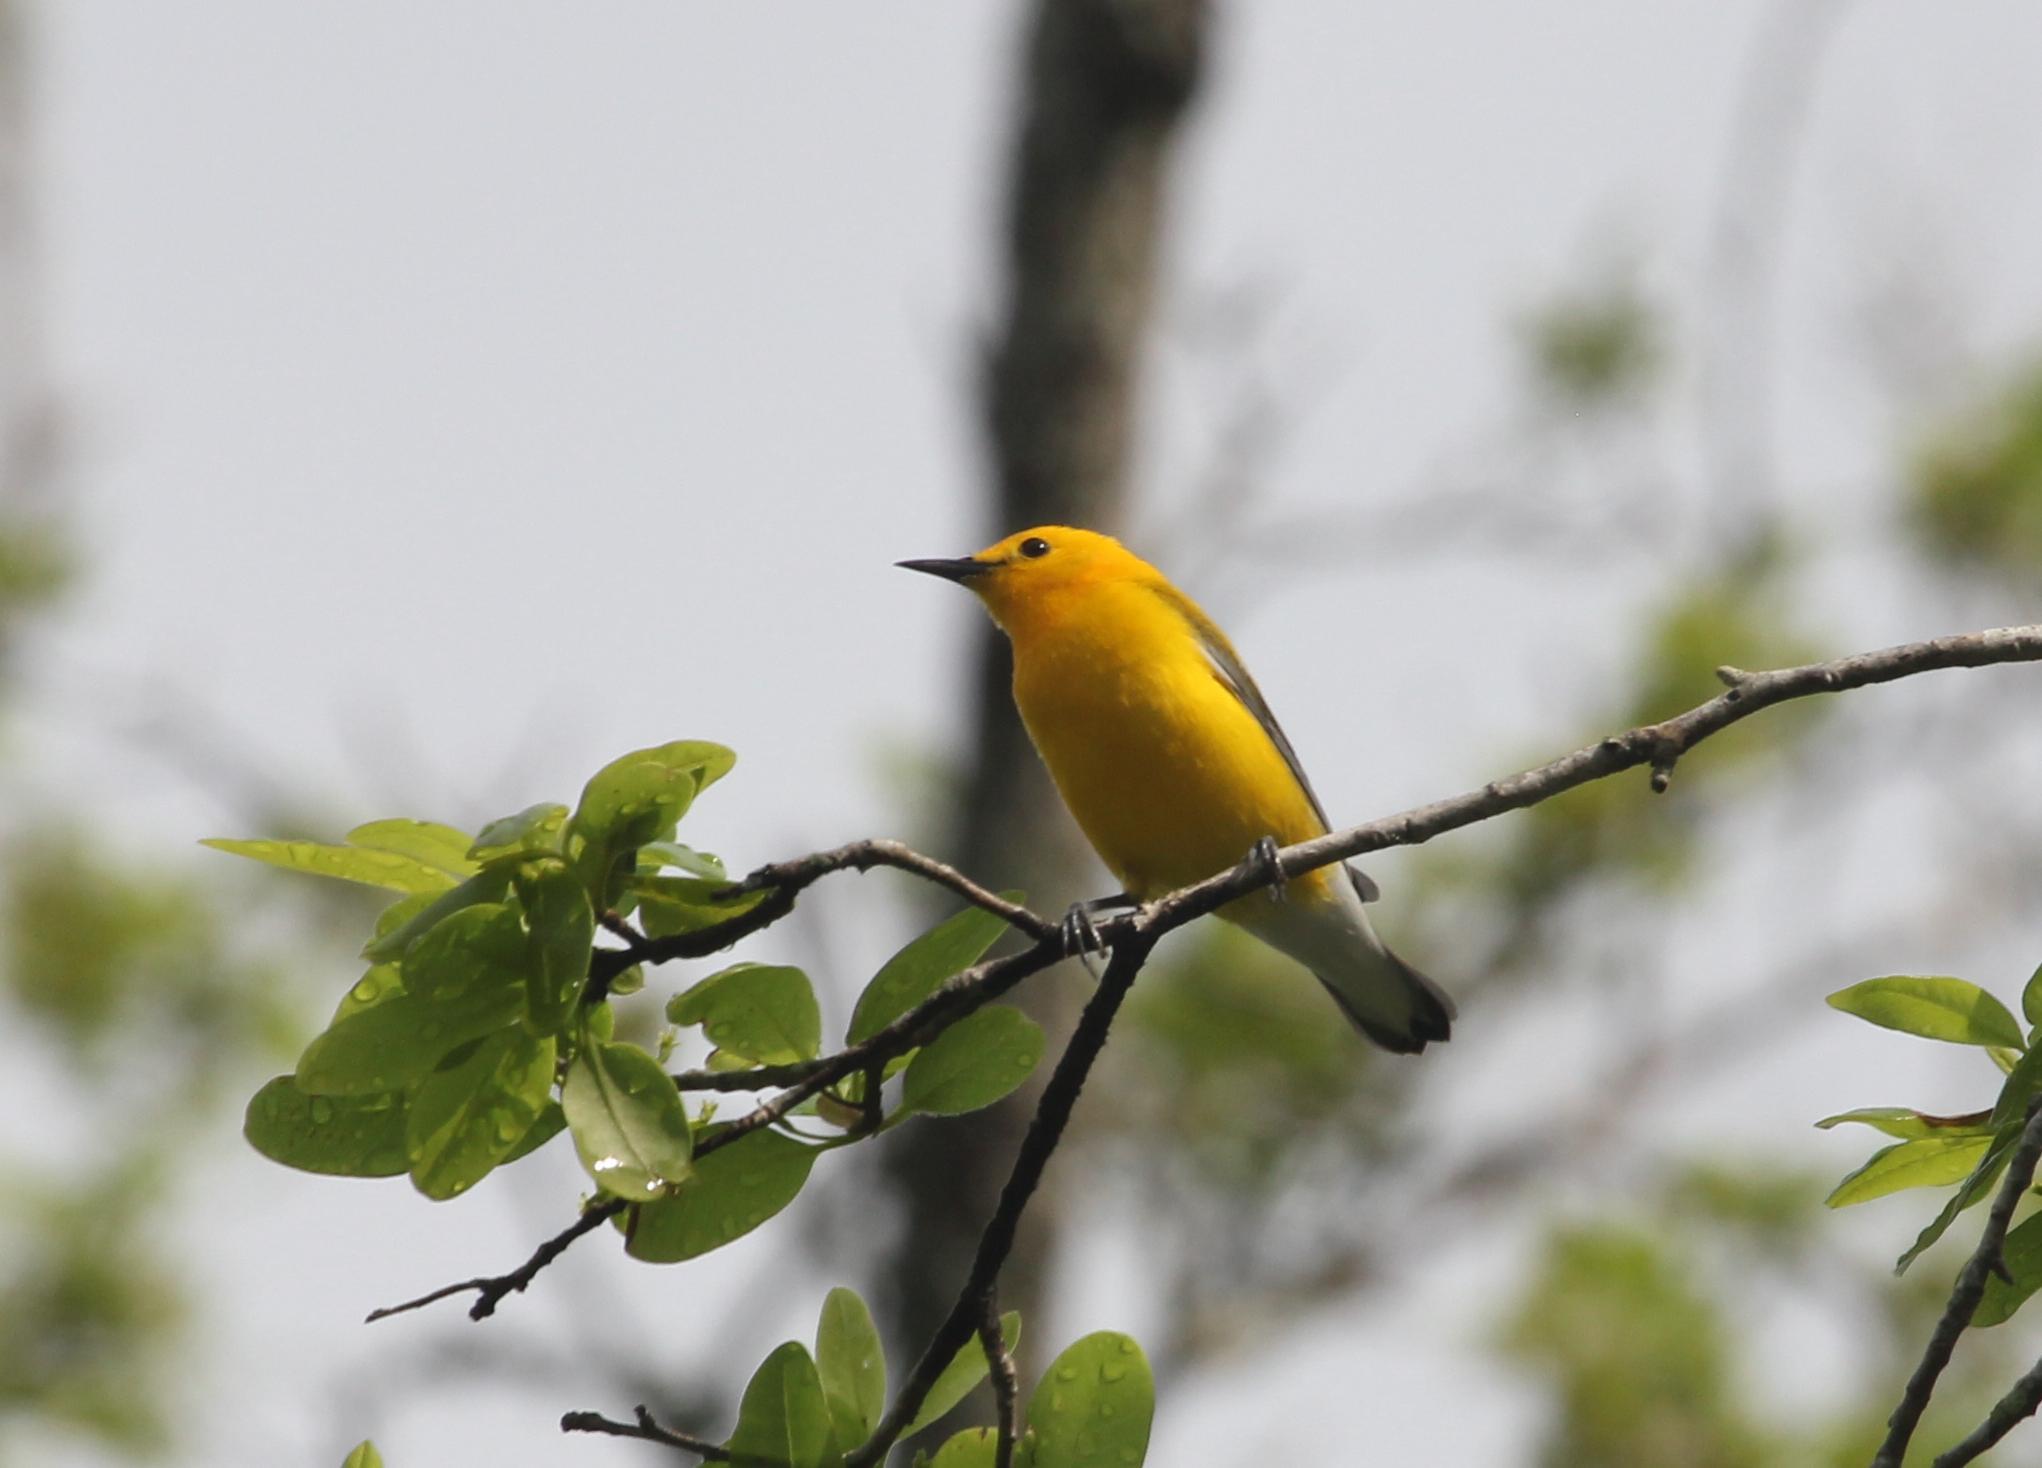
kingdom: Animalia
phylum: Chordata
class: Aves
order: Passeriformes
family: Parulidae
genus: Protonotaria
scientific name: Protonotaria citrea
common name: Prothonotary warbler
